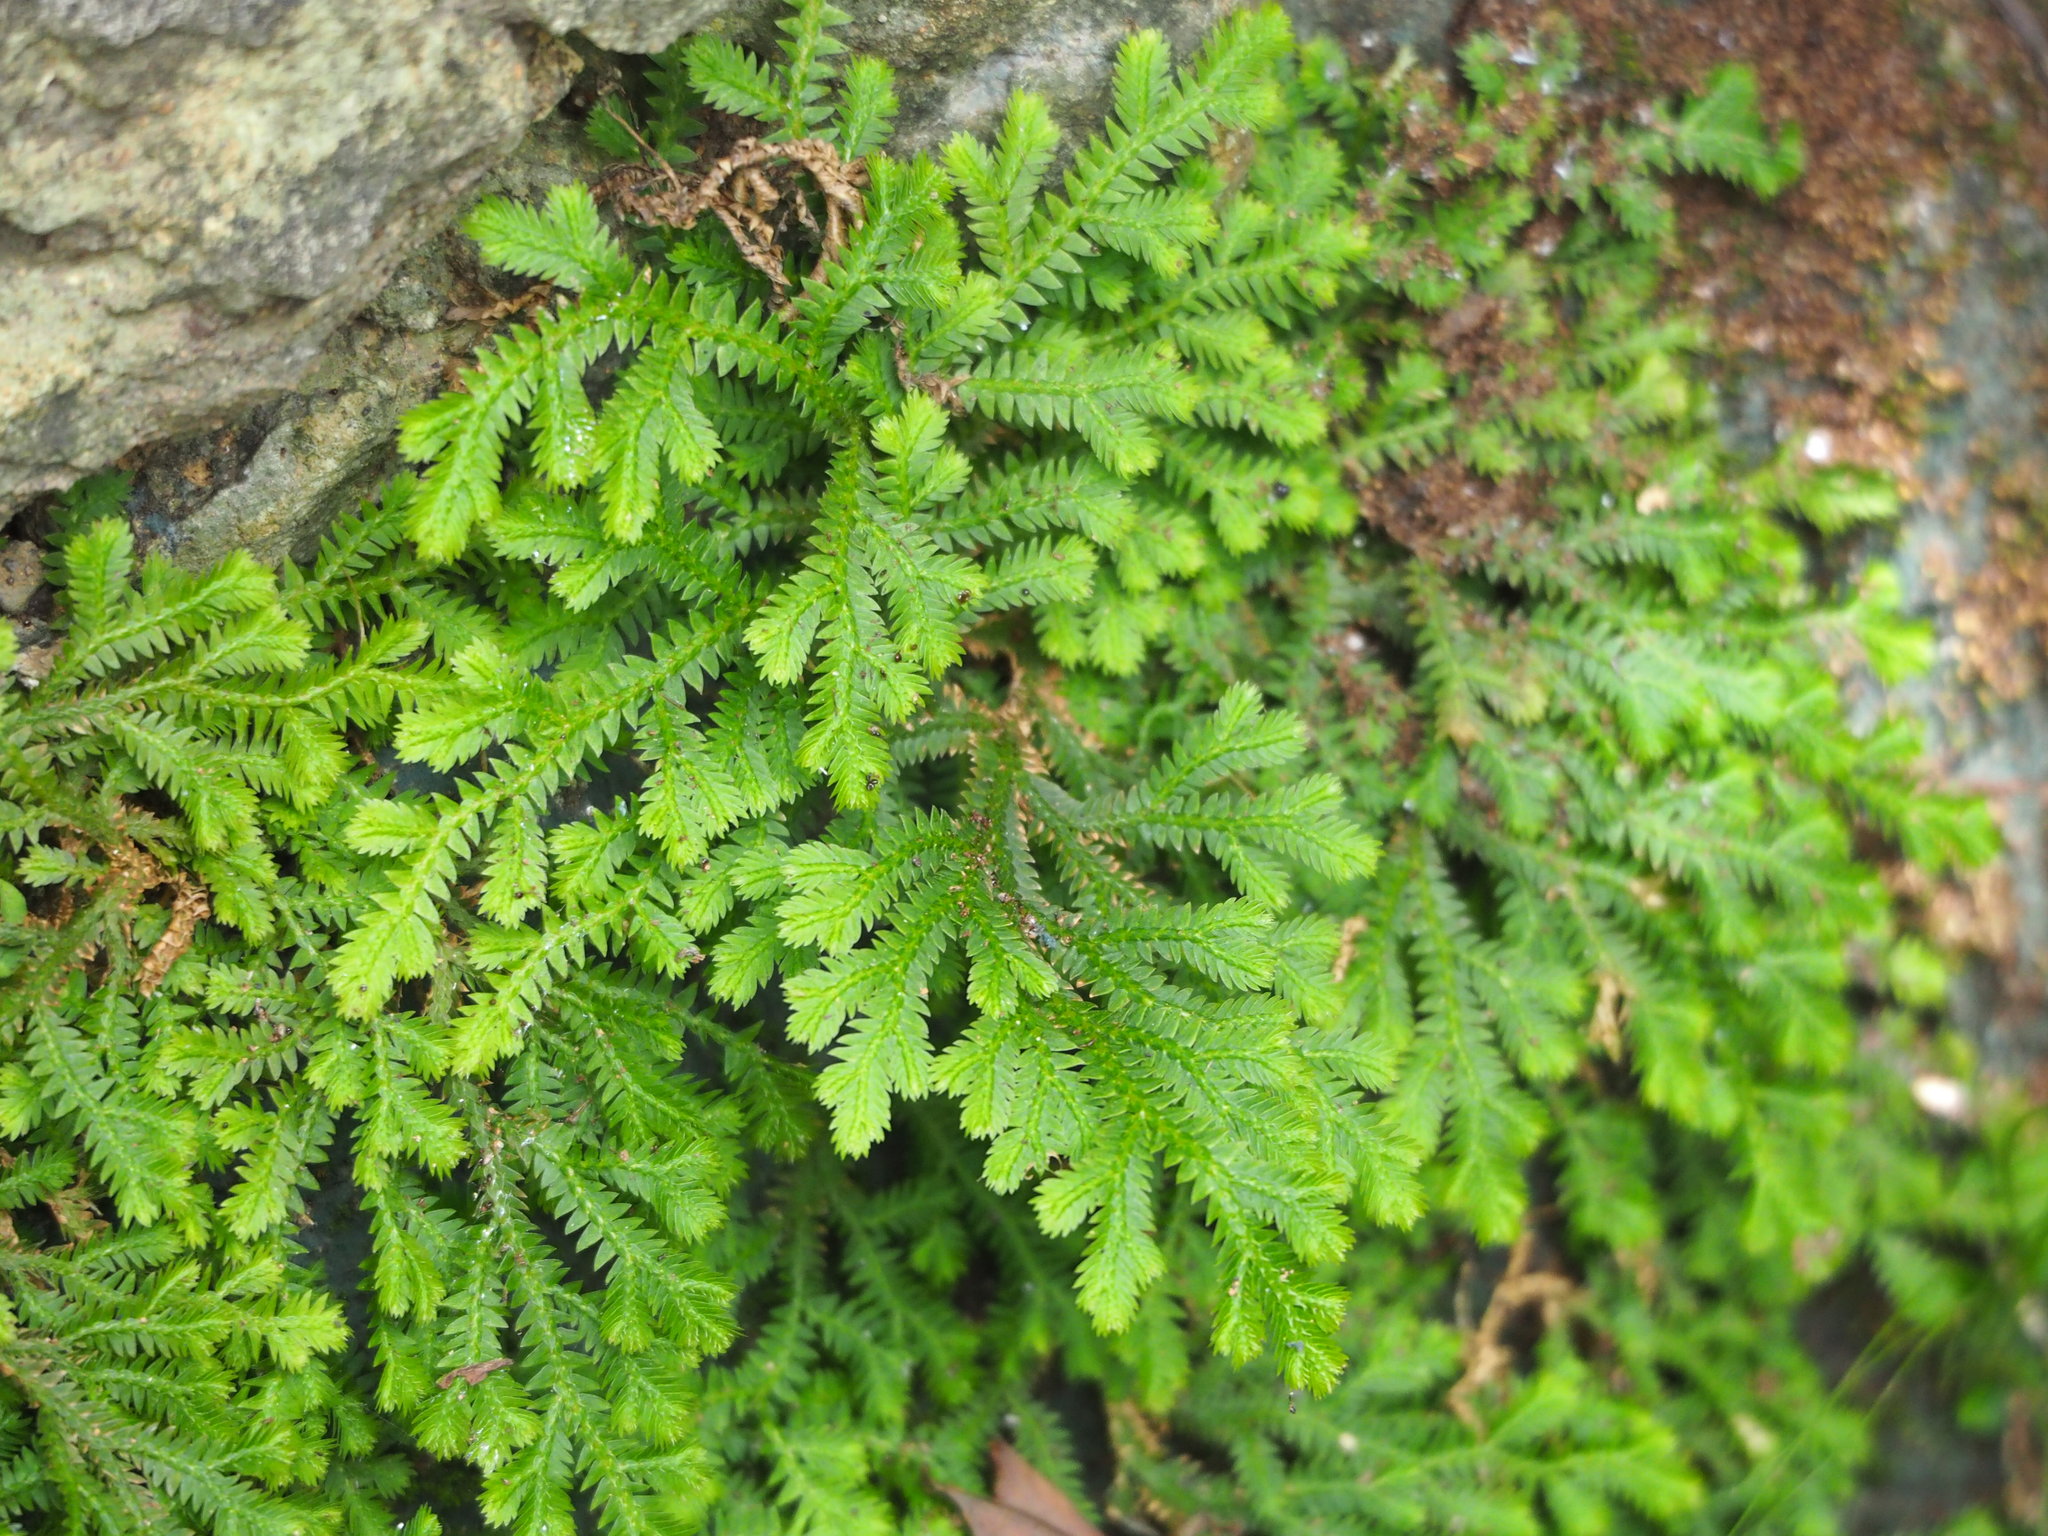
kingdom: Plantae
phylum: Tracheophyta
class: Lycopodiopsida
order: Selaginellales
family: Selaginellaceae
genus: Selaginella
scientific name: Selaginella repanda
